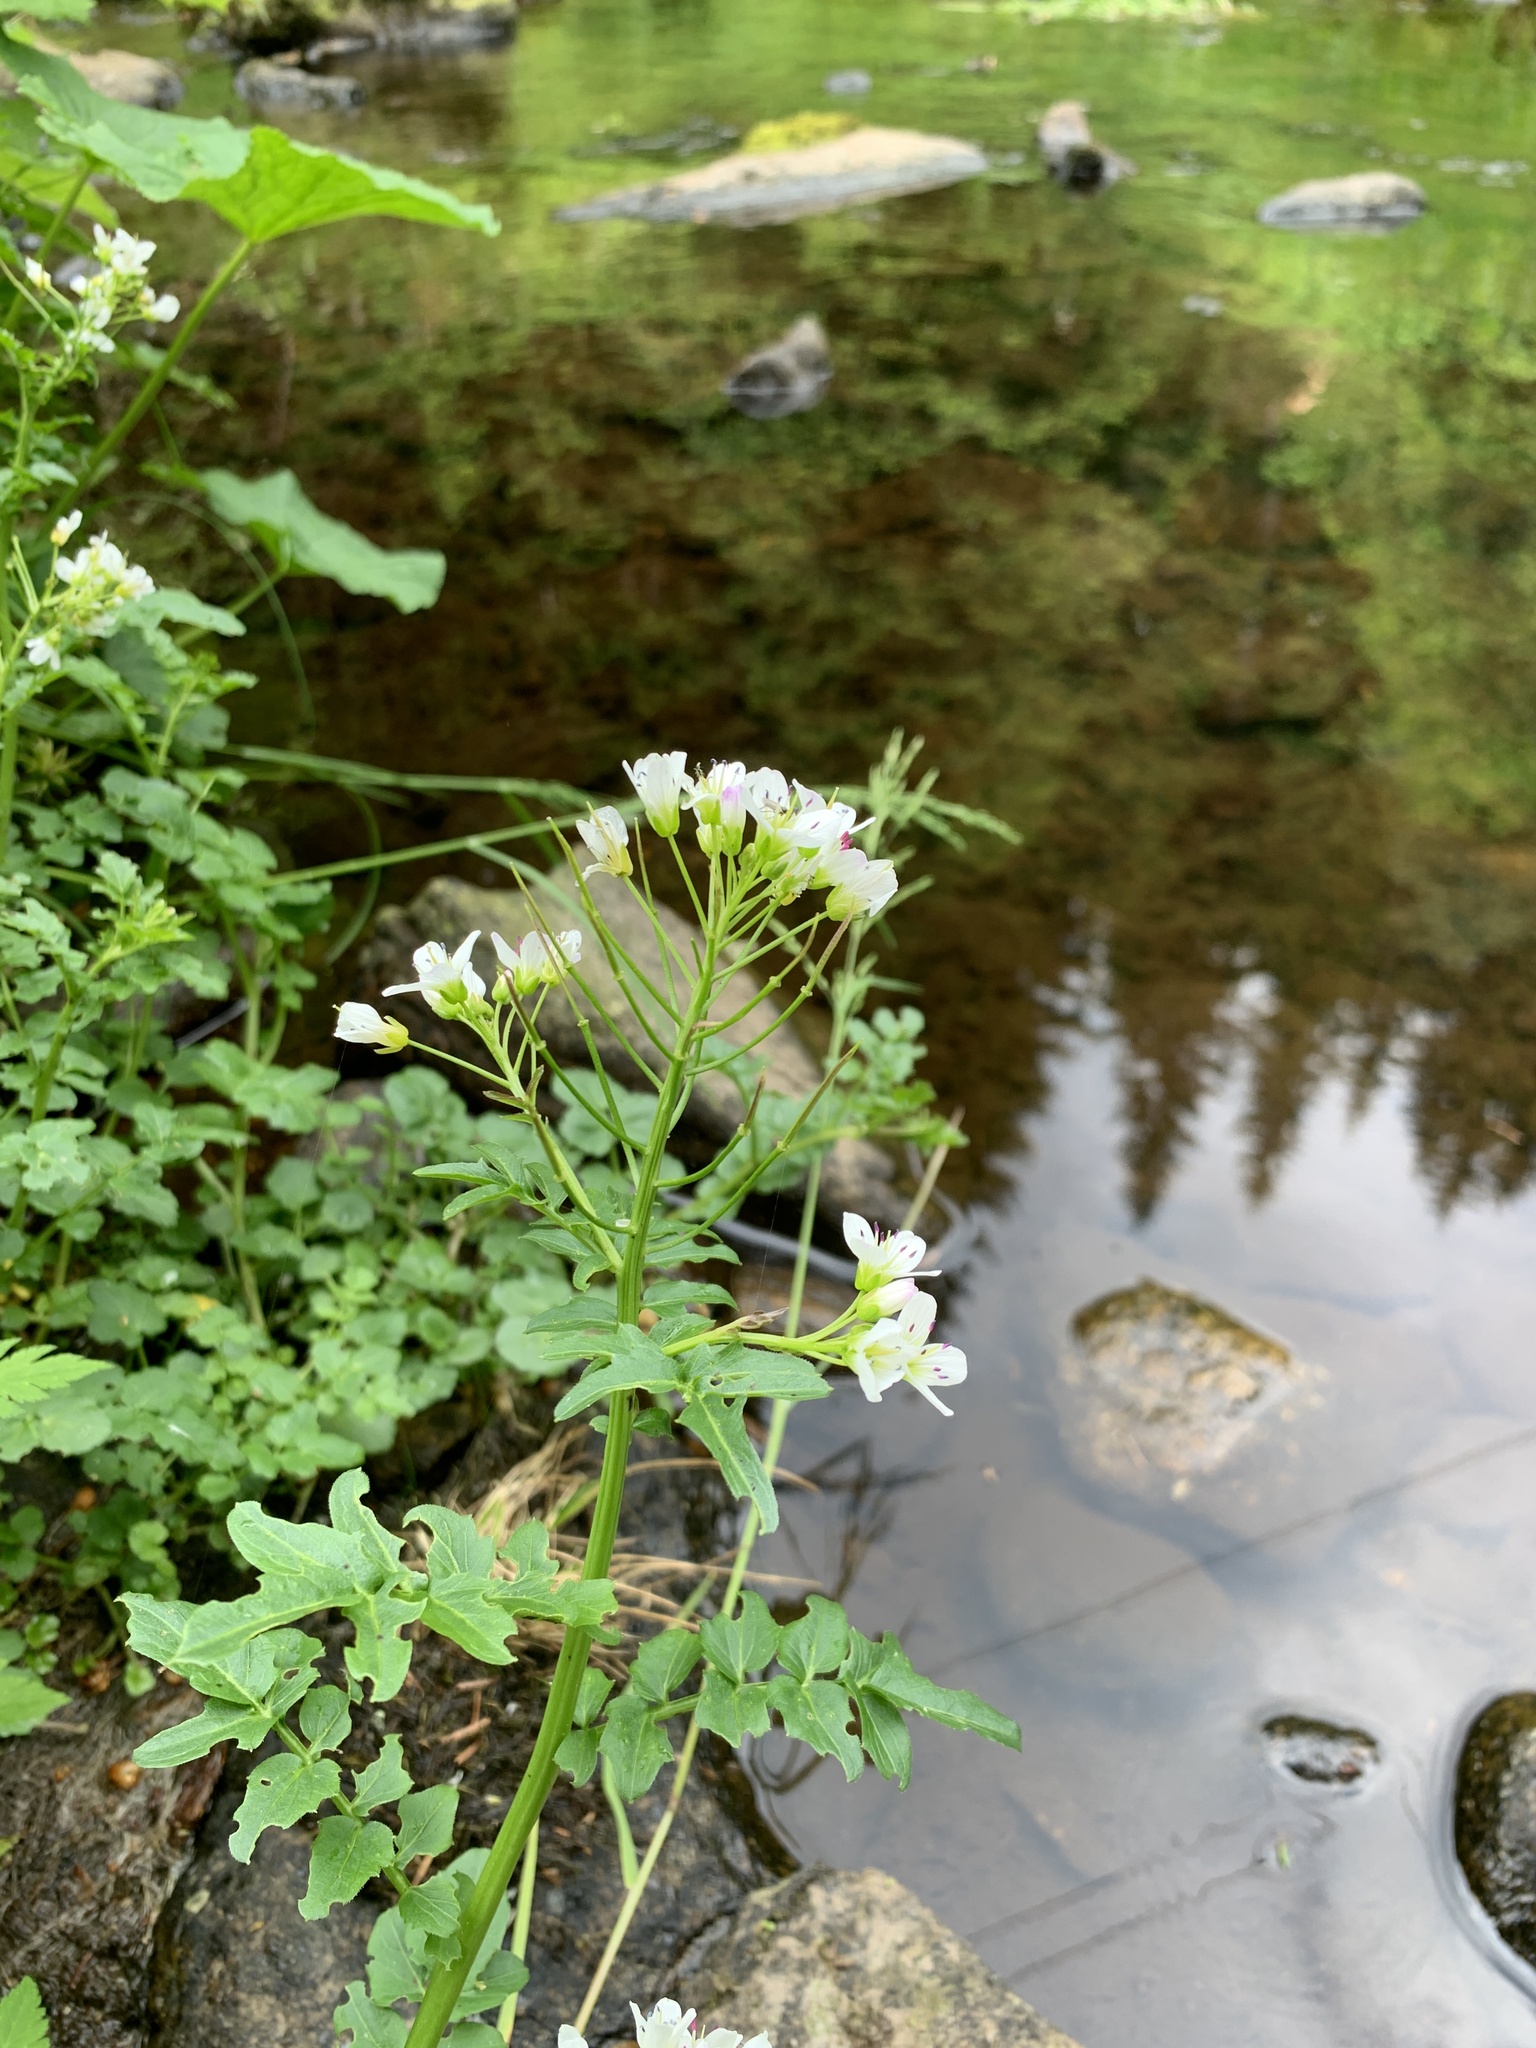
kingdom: Plantae
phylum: Tracheophyta
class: Magnoliopsida
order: Brassicales
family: Brassicaceae
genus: Cardamine
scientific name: Cardamine amara
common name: Large bitter-cress
